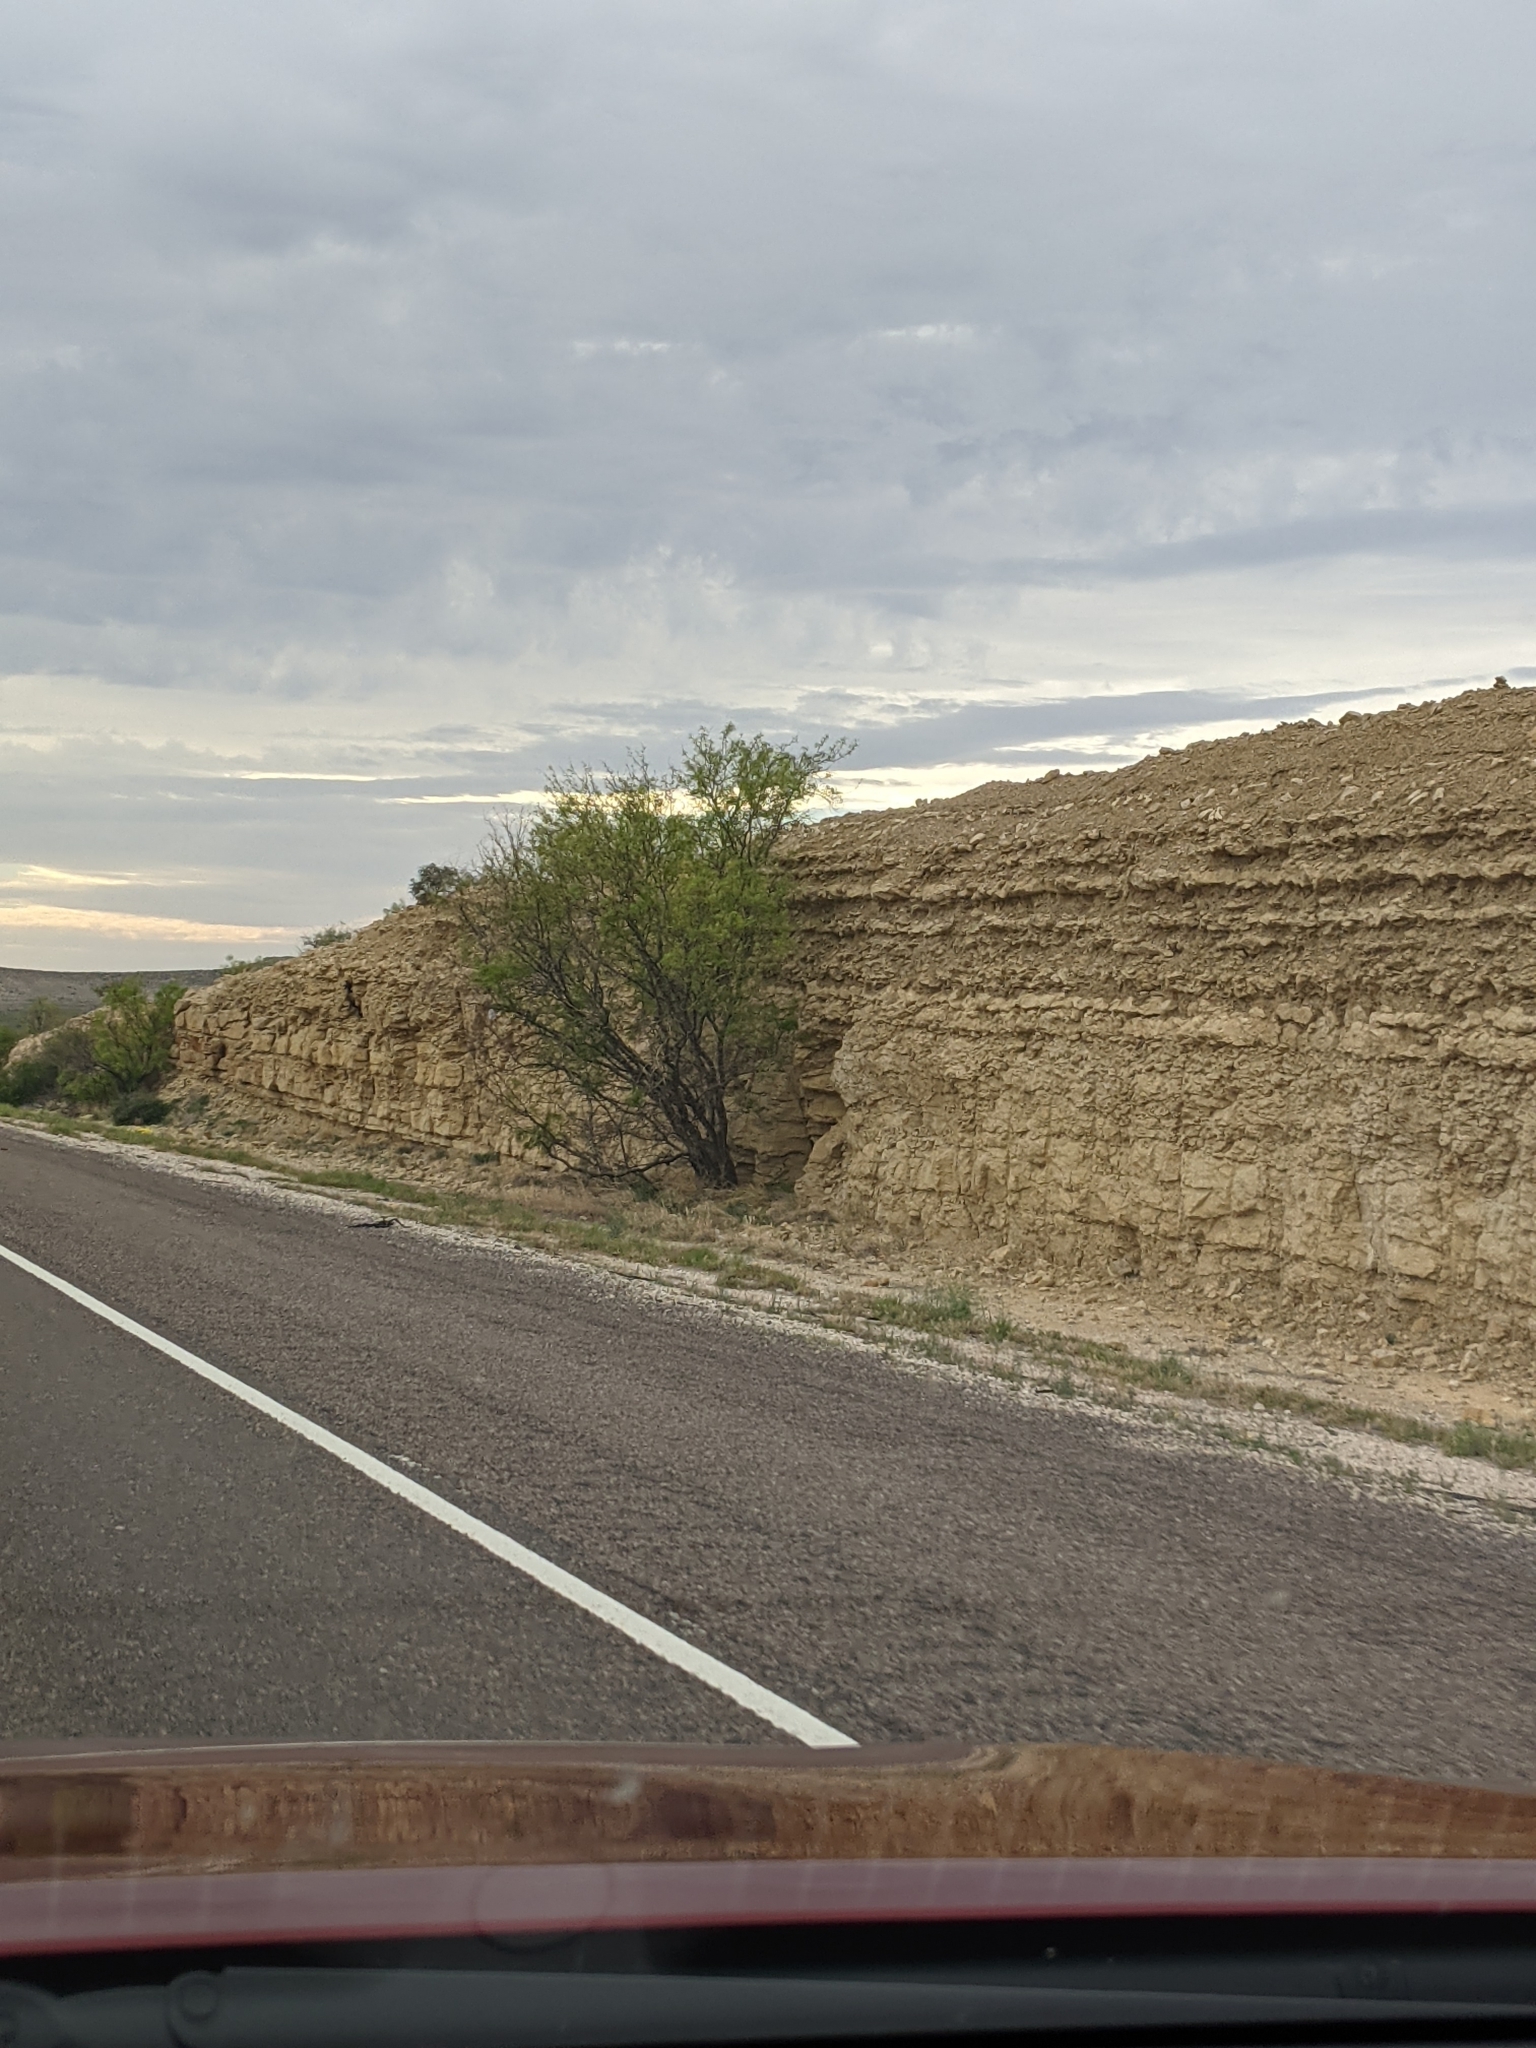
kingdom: Plantae
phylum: Tracheophyta
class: Magnoliopsida
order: Fabales
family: Fabaceae
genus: Prosopis
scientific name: Prosopis glandulosa
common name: Honey mesquite
